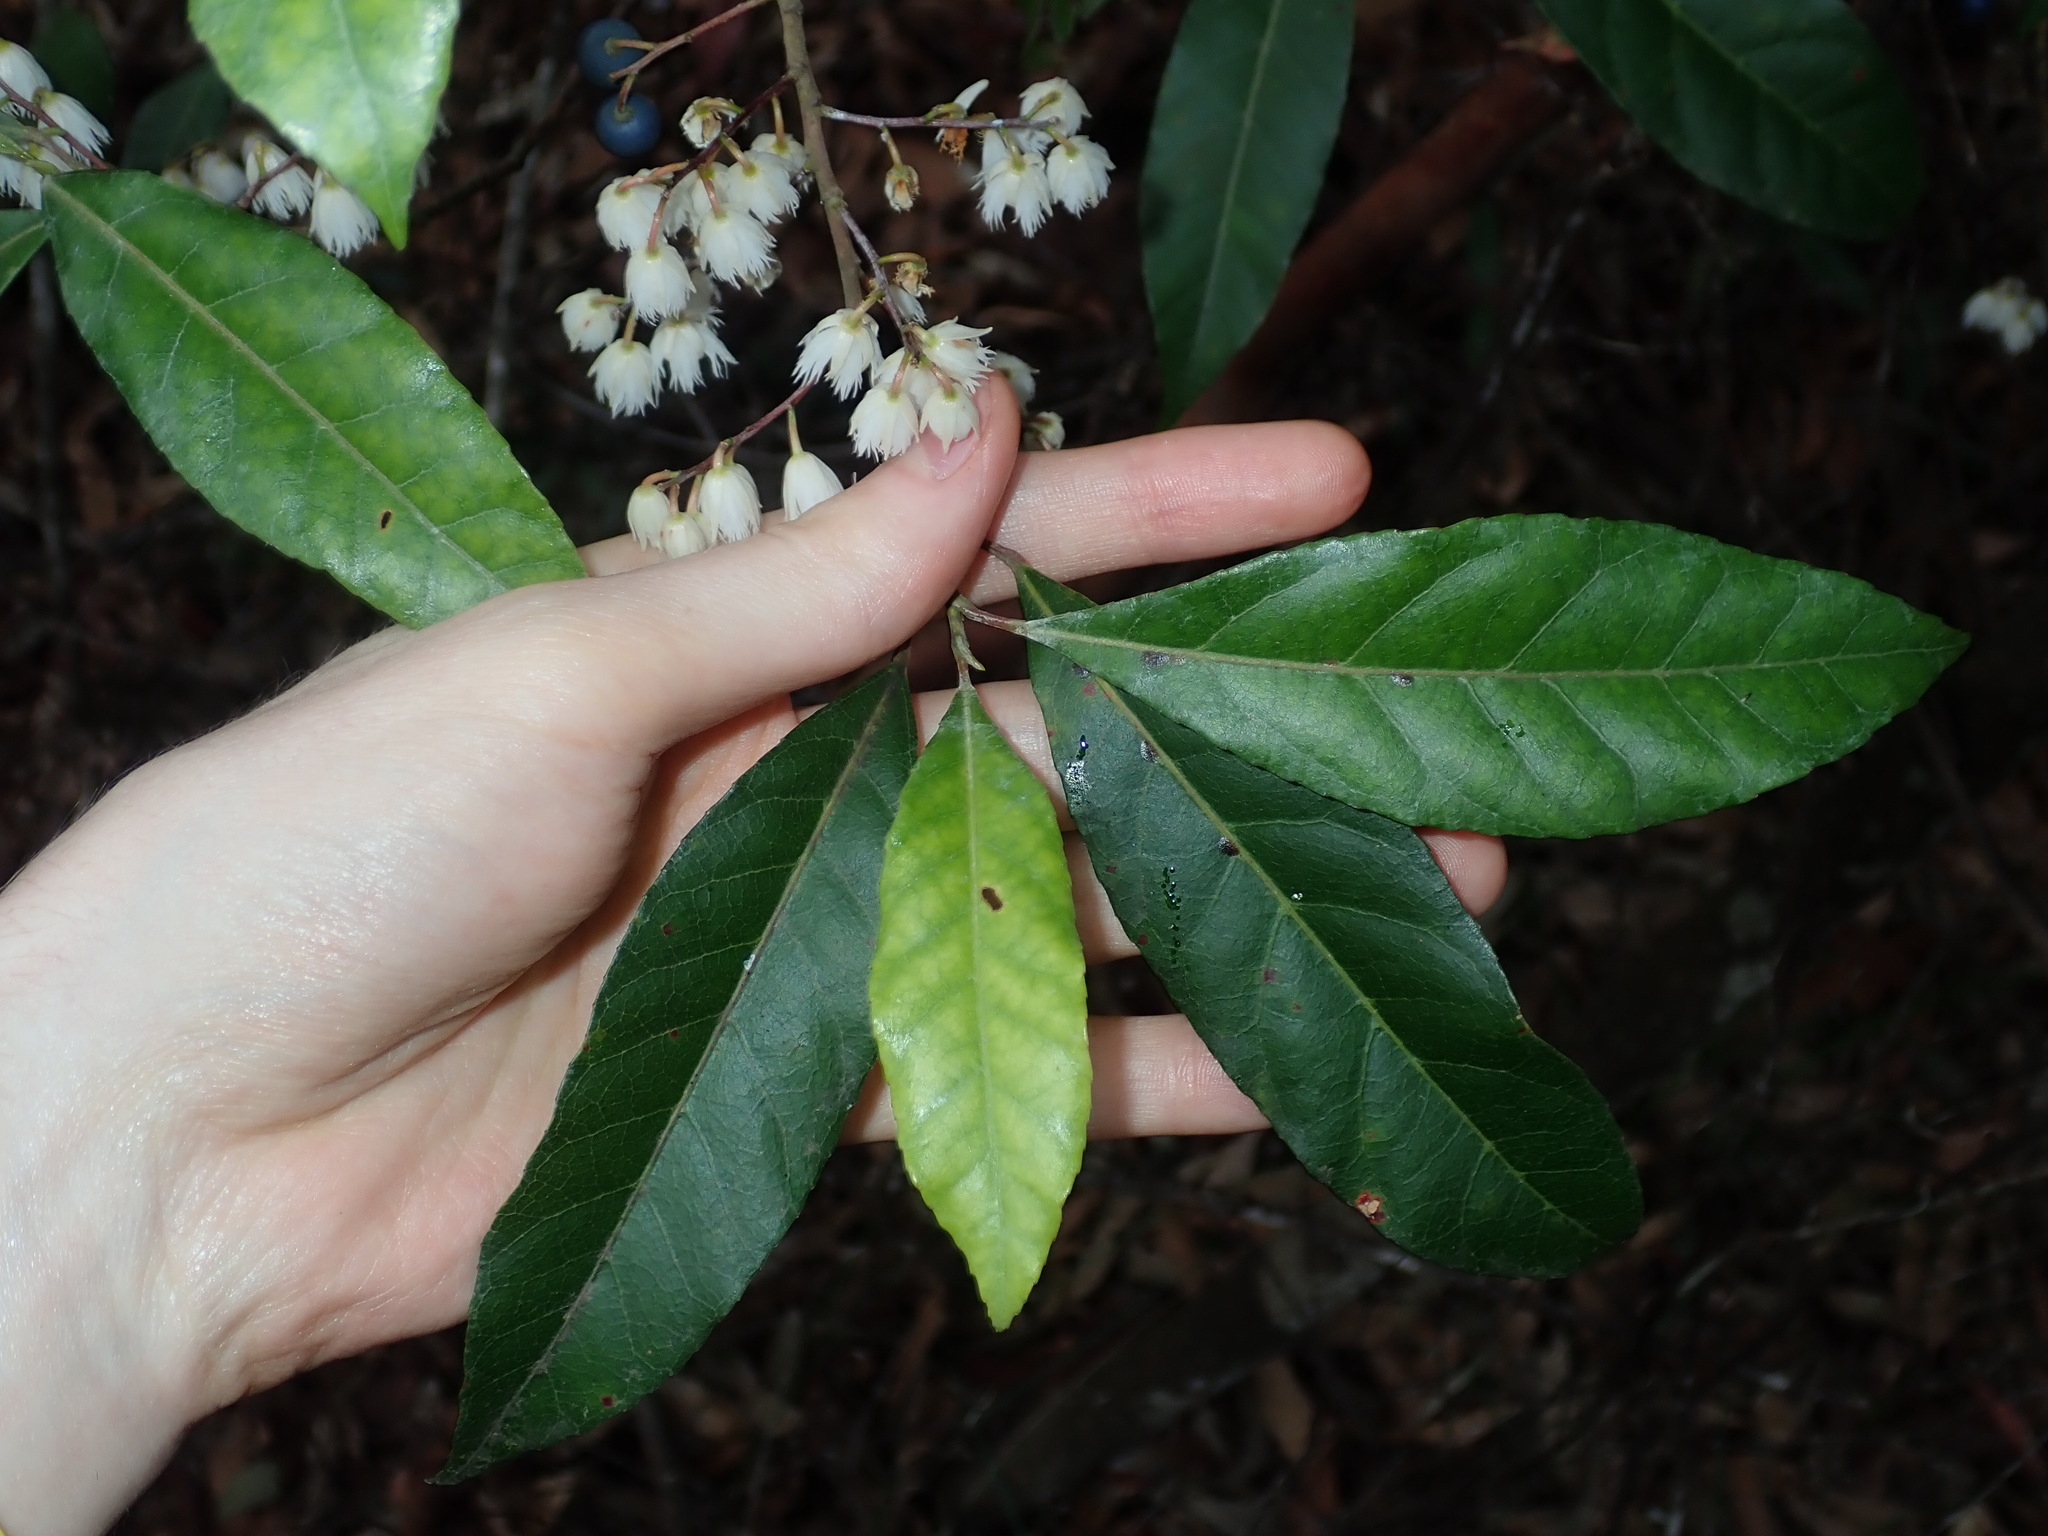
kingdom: Plantae
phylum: Tracheophyta
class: Magnoliopsida
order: Oxalidales
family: Elaeocarpaceae
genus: Elaeocarpus
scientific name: Elaeocarpus reticulatus
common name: Ash quandong
